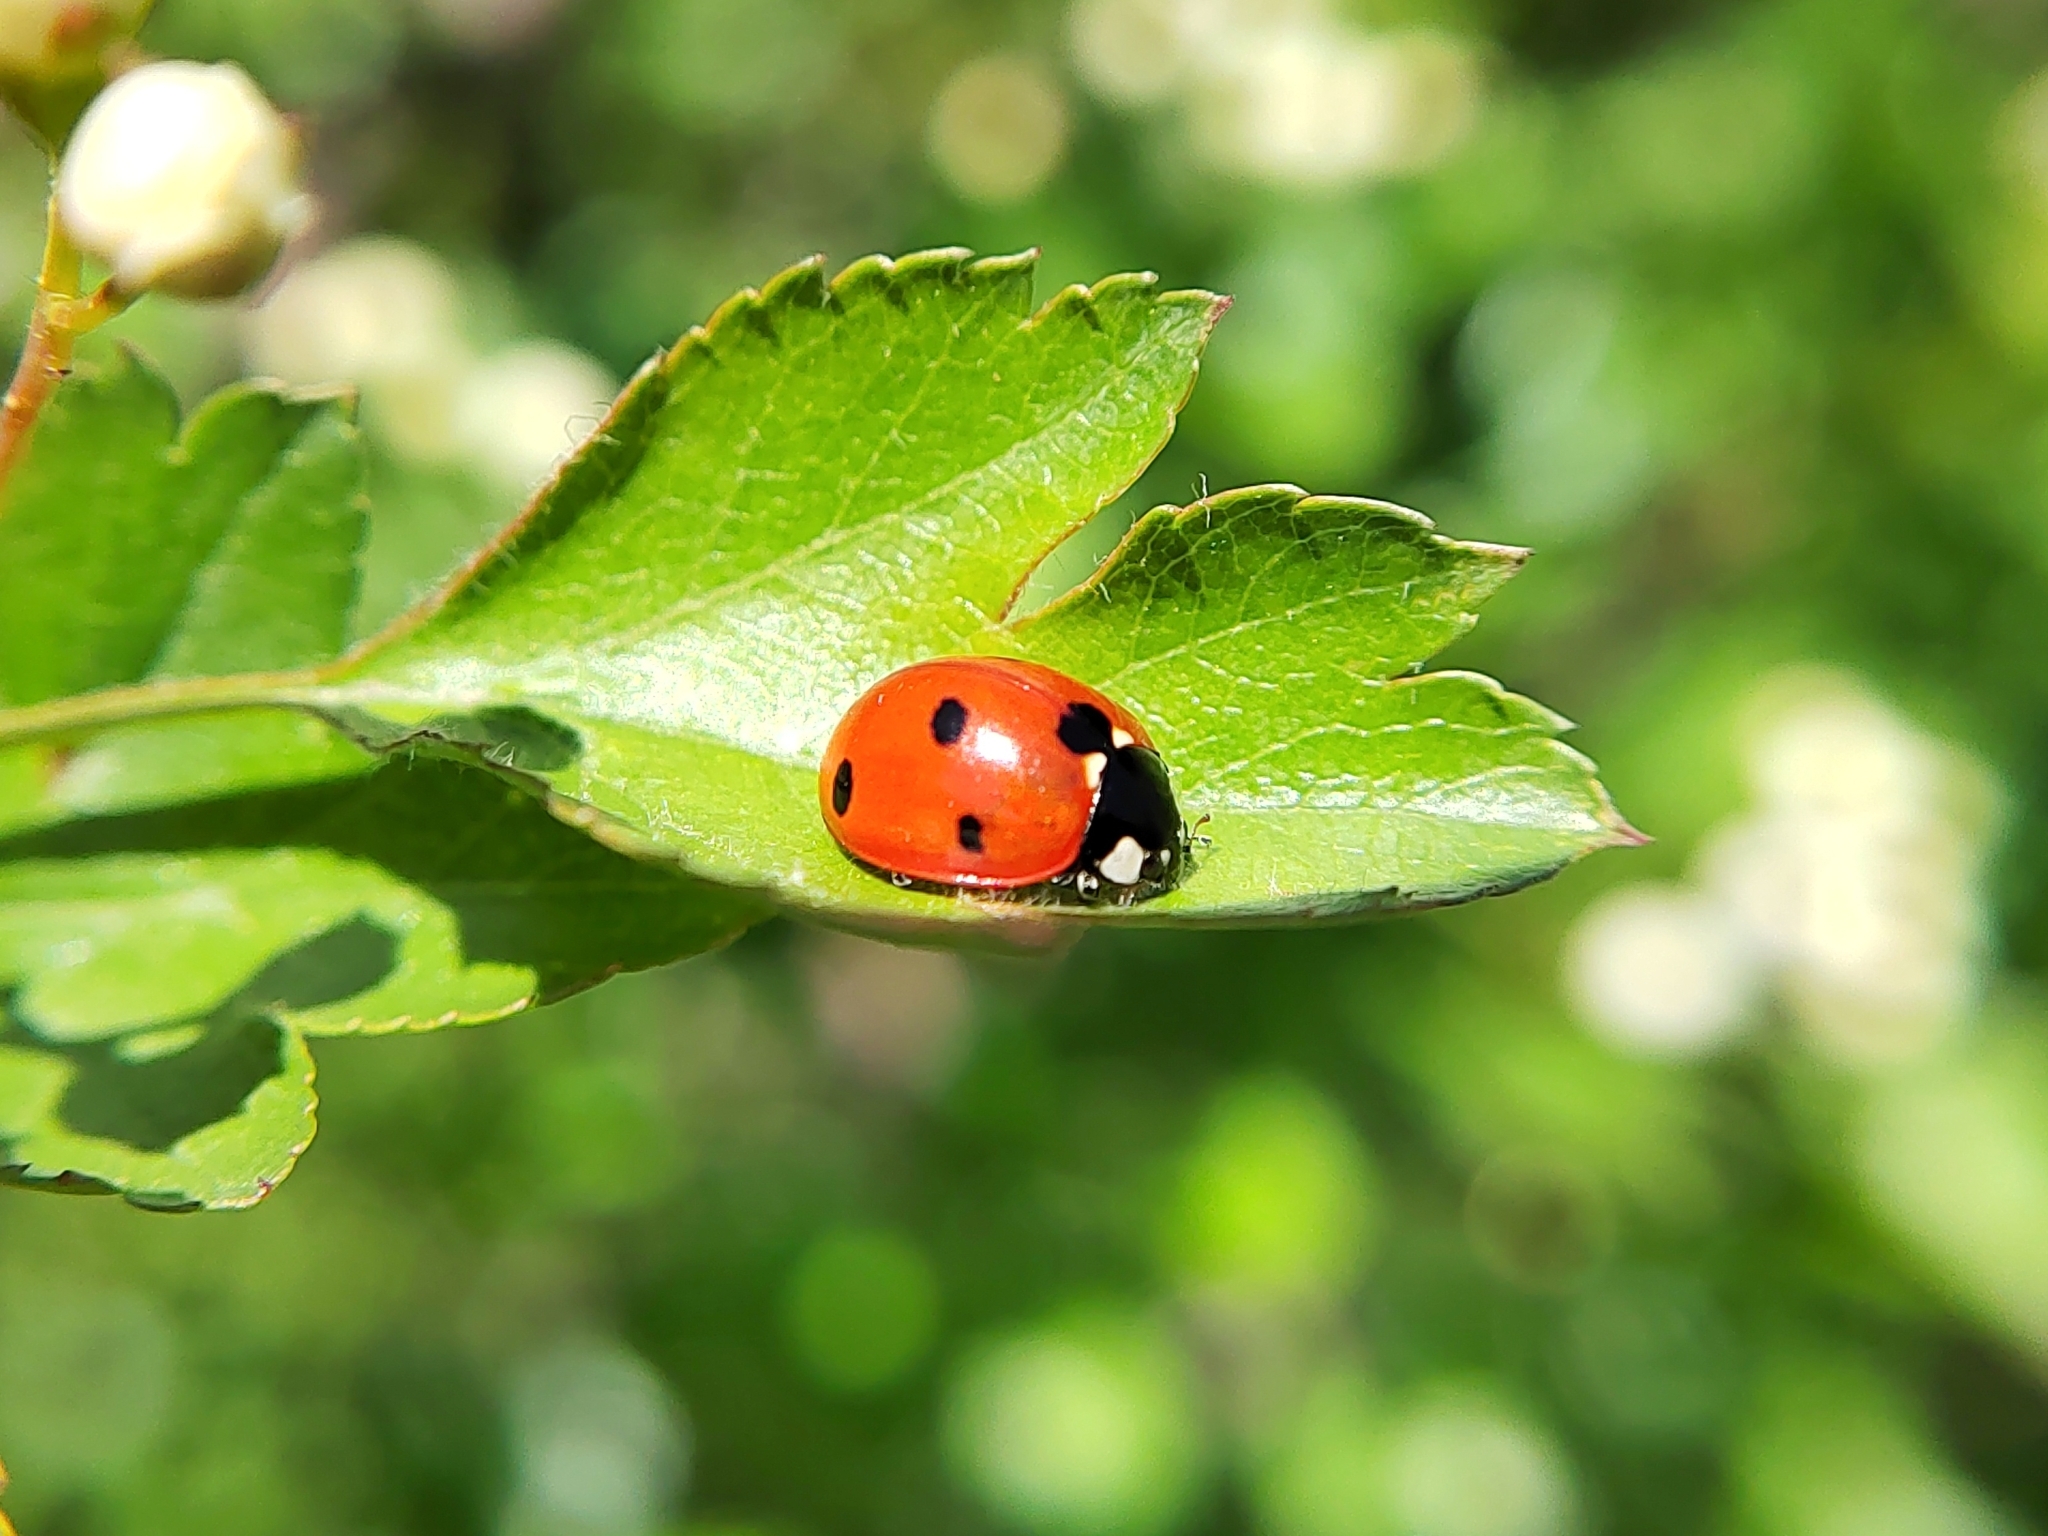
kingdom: Animalia
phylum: Arthropoda
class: Insecta
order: Coleoptera
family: Coccinellidae
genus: Coccinella
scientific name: Coccinella septempunctata
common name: Sevenspotted lady beetle
